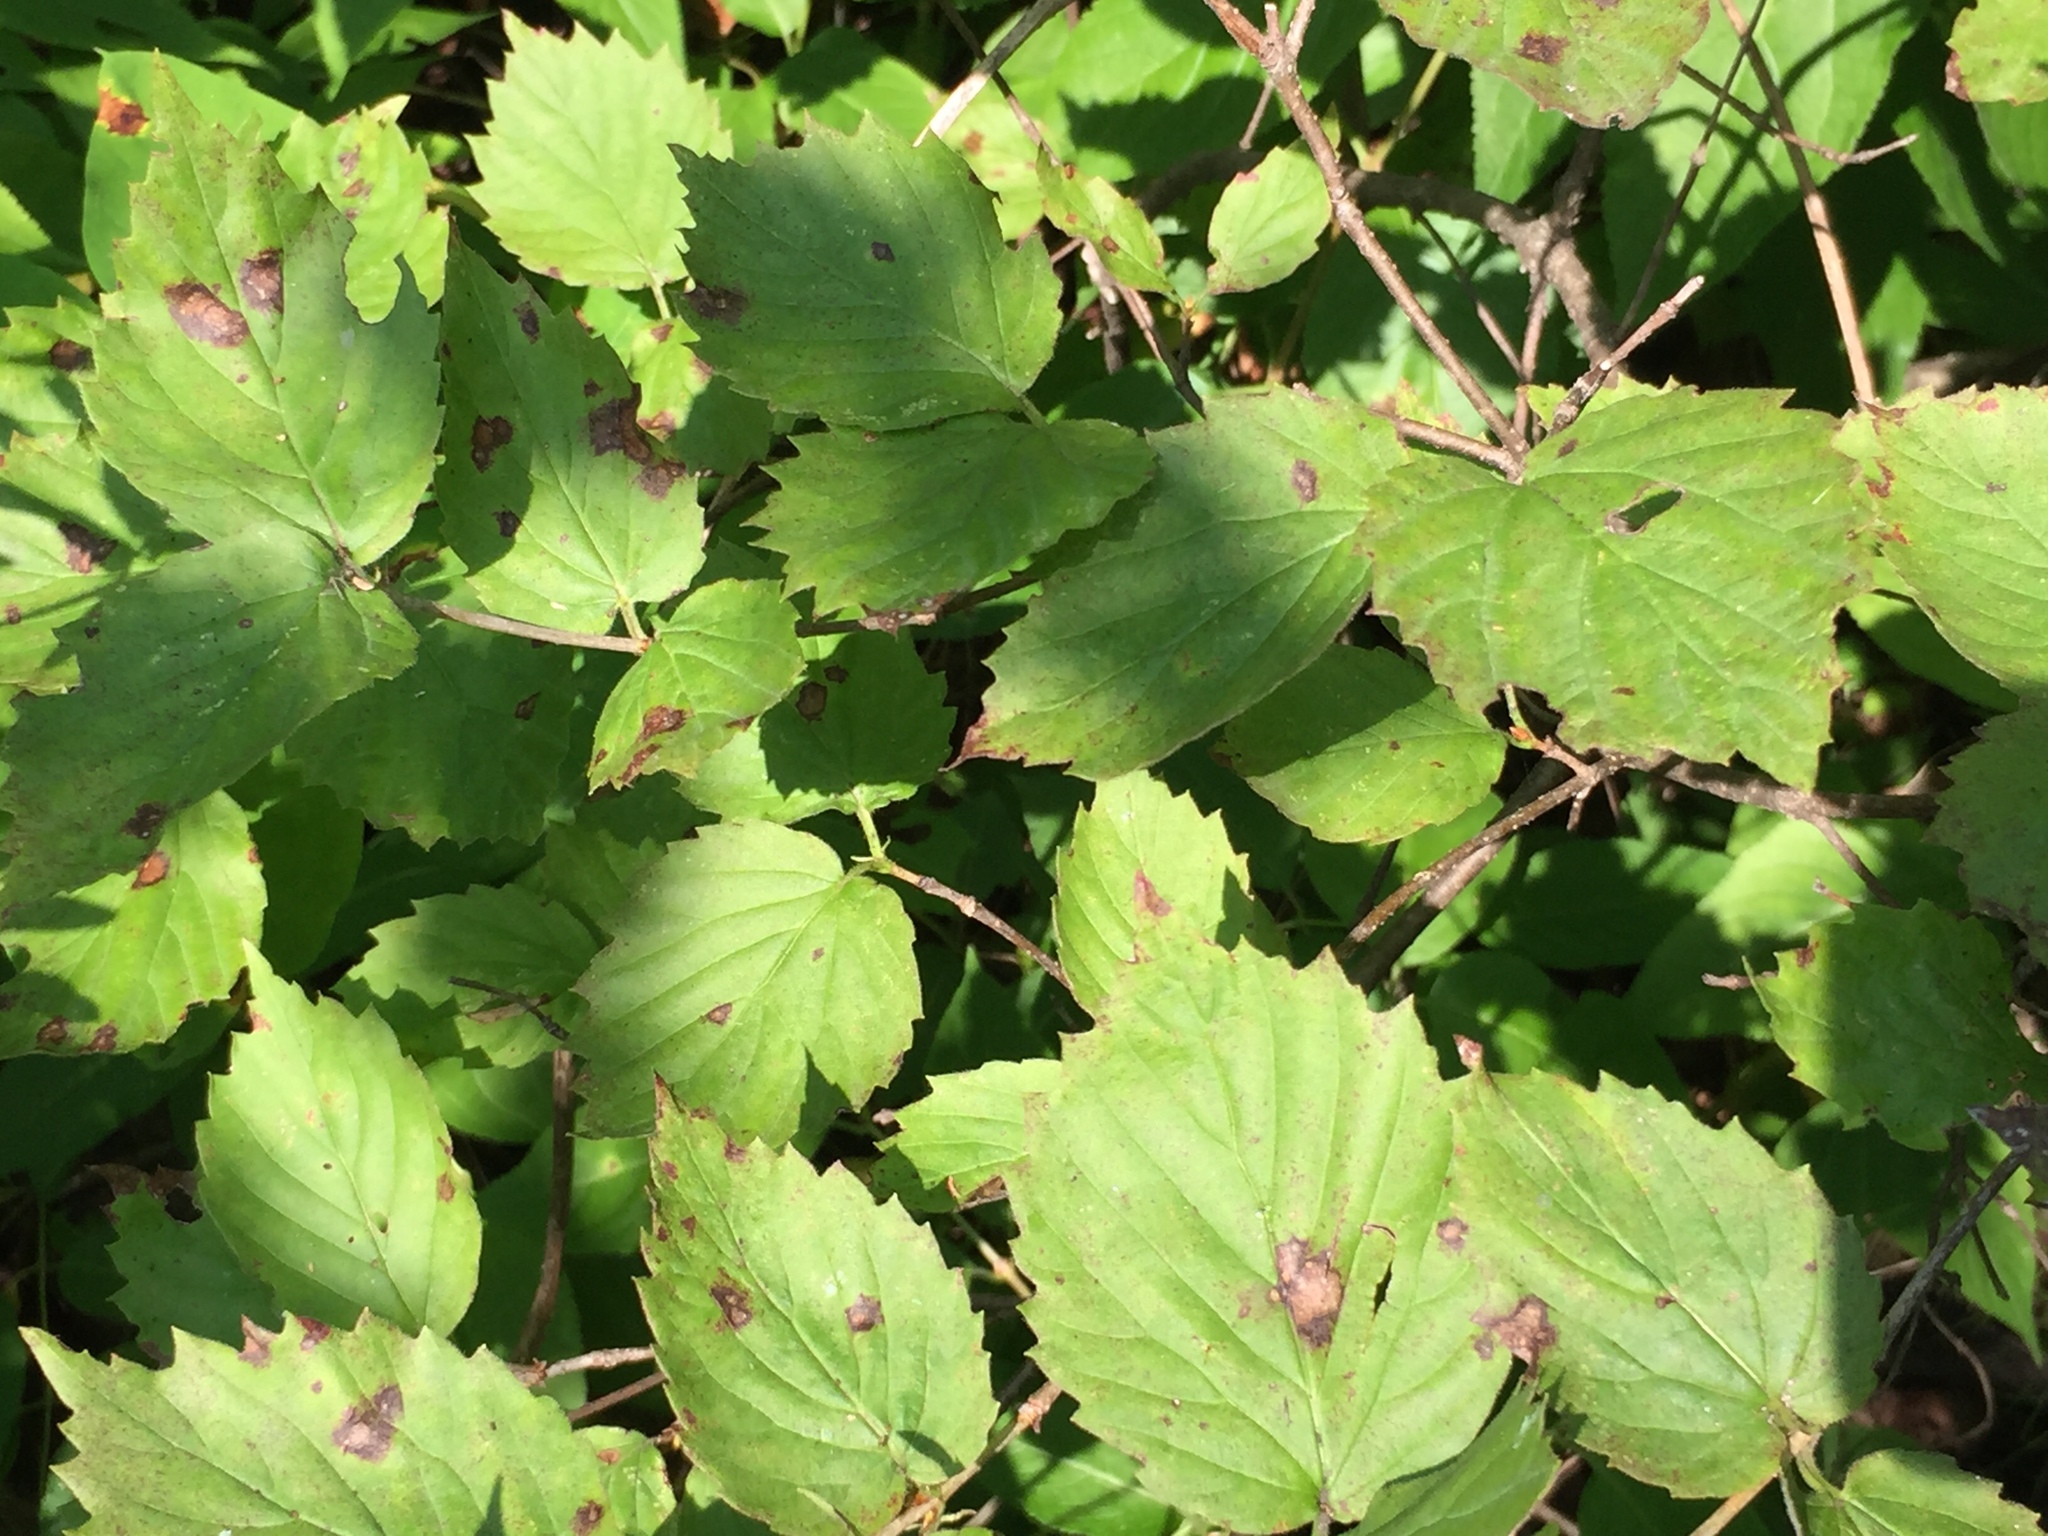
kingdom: Plantae
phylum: Tracheophyta
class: Magnoliopsida
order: Dipsacales
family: Viburnaceae
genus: Viburnum
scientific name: Viburnum rafinesqueanum
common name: Downy arrow-wood
